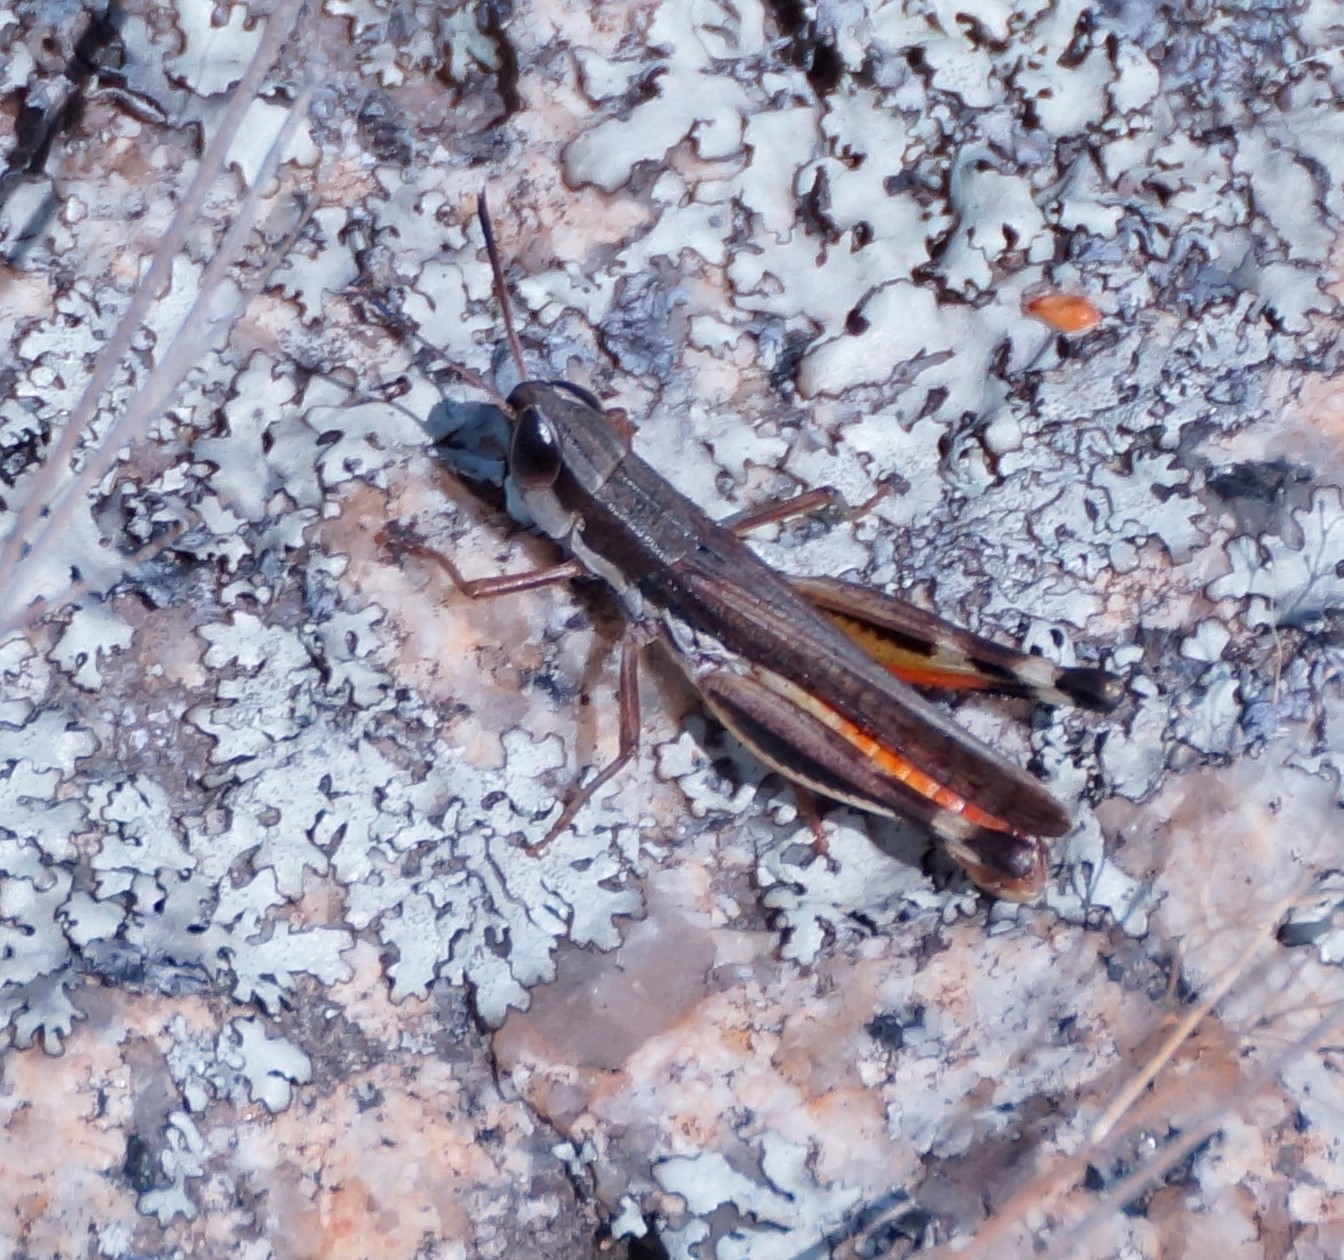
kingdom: Animalia
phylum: Arthropoda
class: Insecta
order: Orthoptera
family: Acrididae
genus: Macrotona
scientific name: Macrotona australis
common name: Common macrotona
